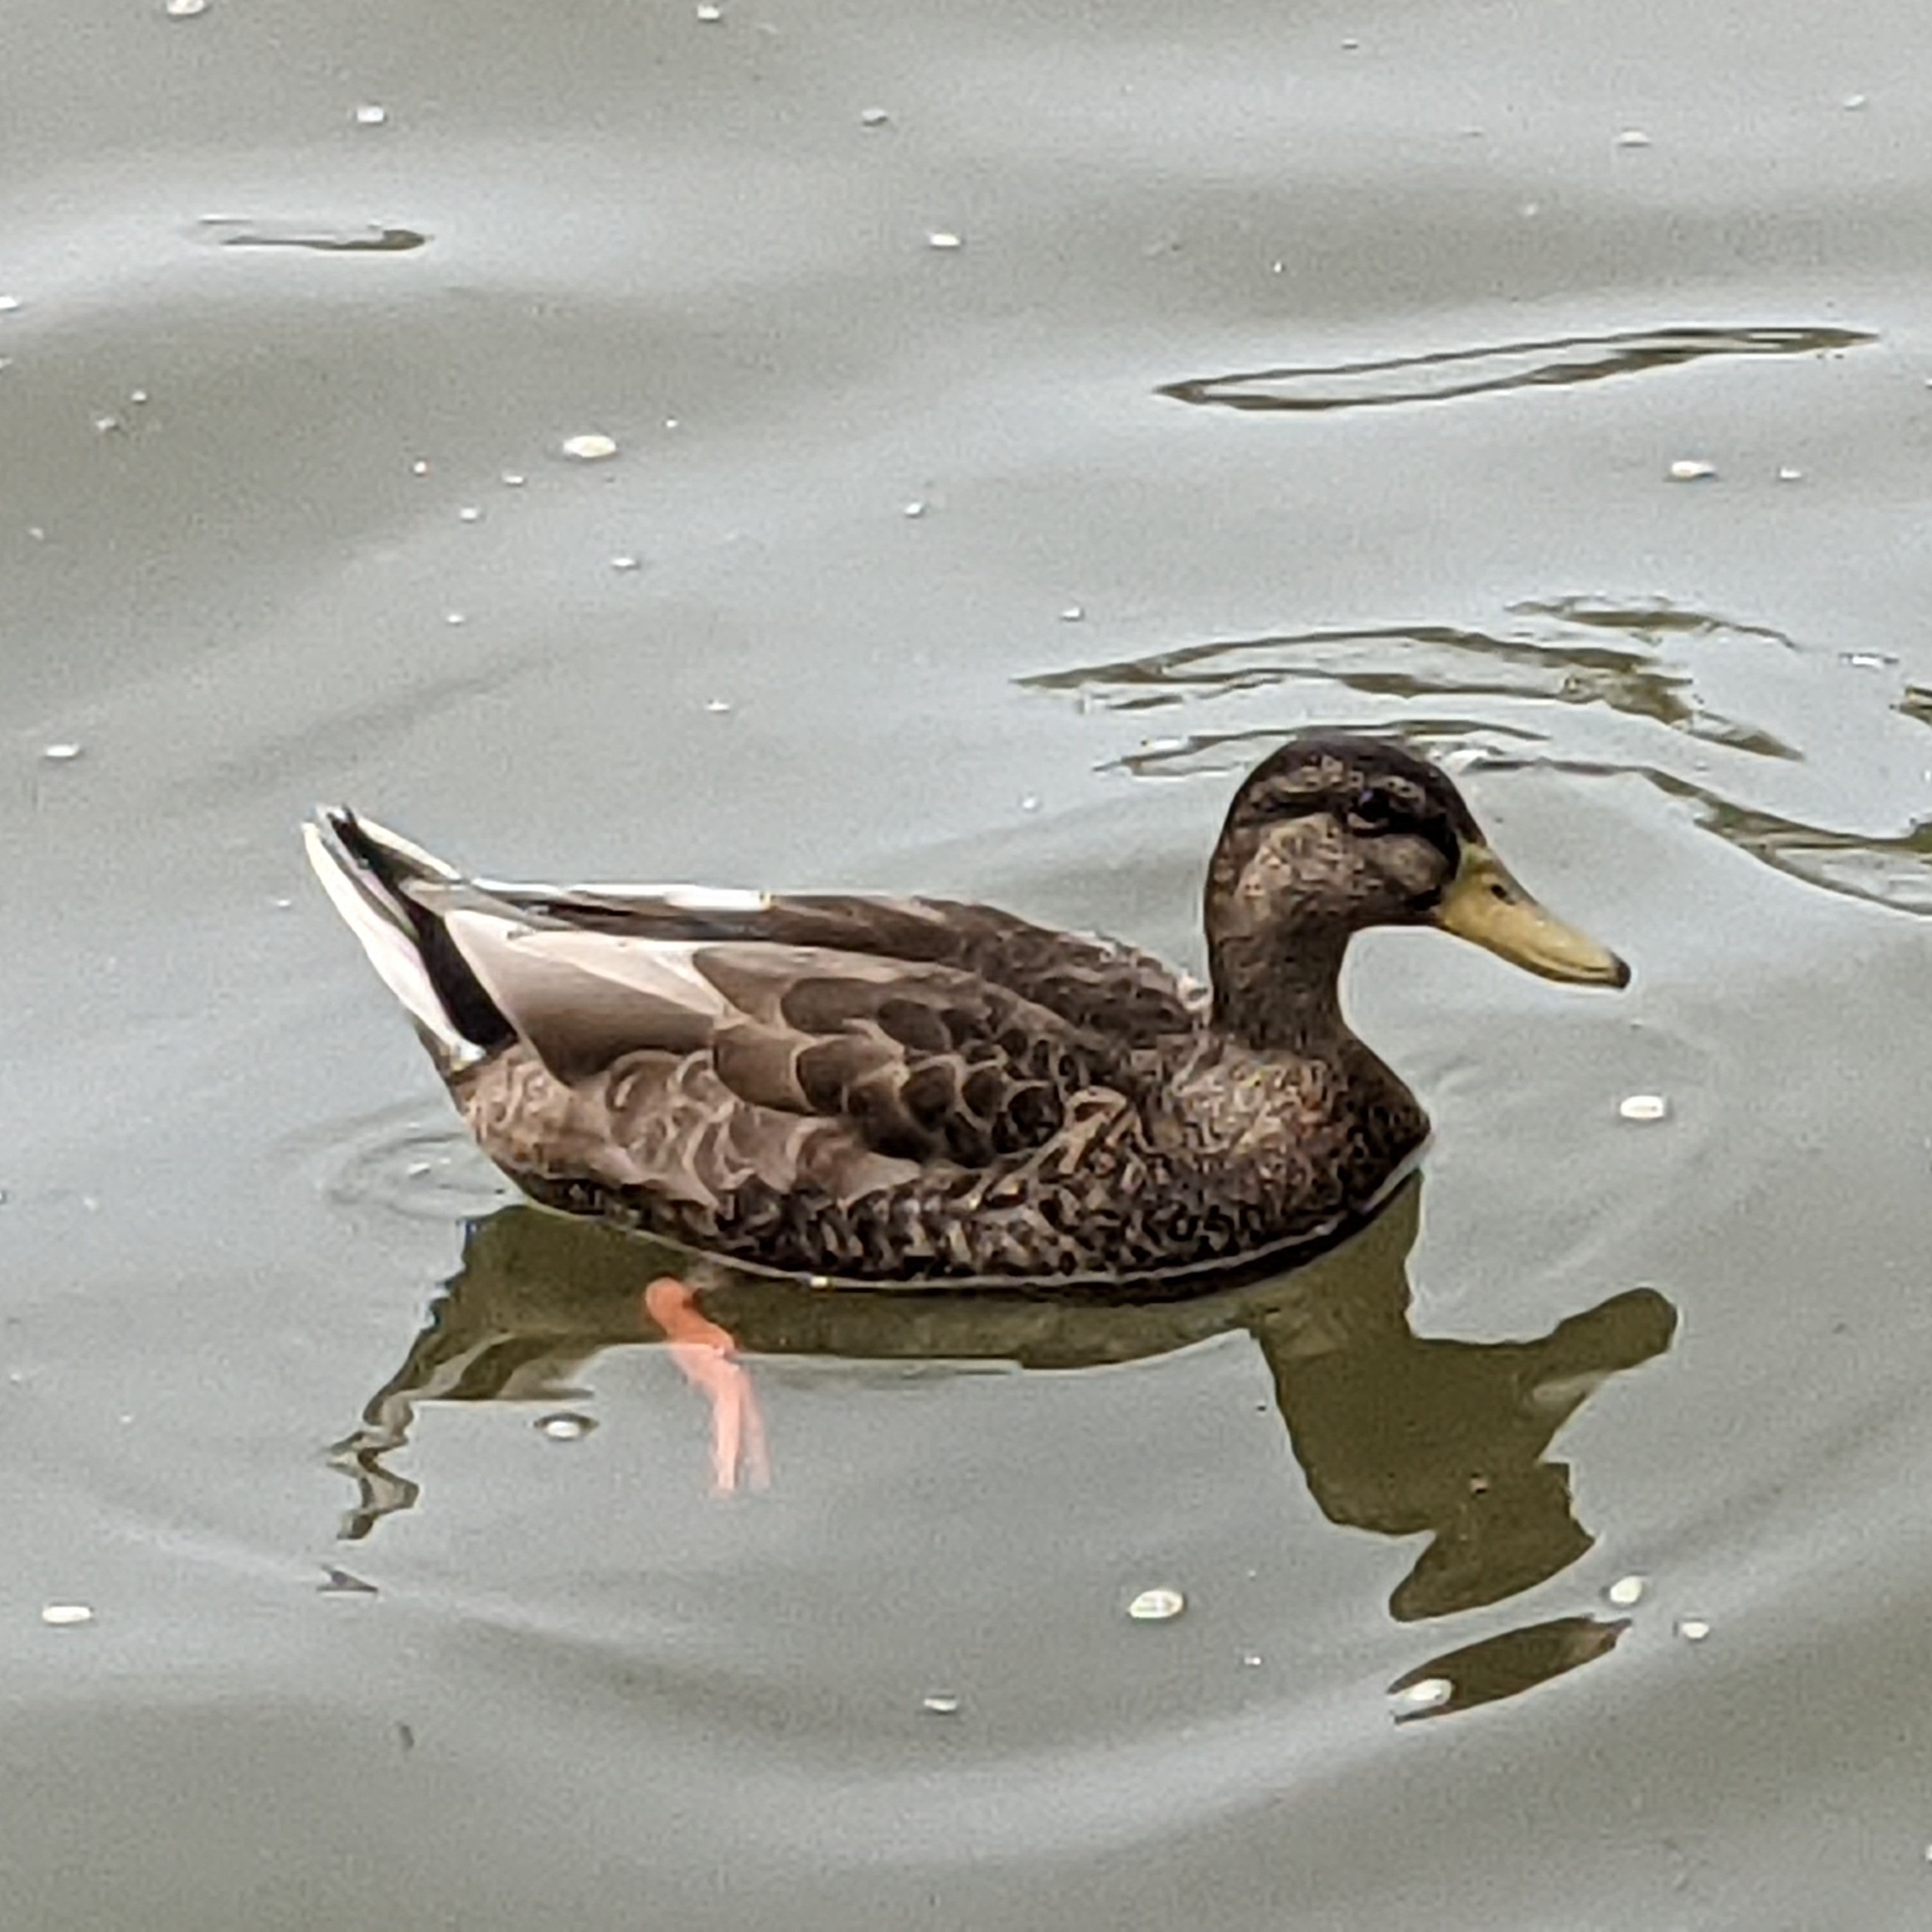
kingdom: Animalia
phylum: Chordata
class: Aves
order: Anseriformes
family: Anatidae
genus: Anas
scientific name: Anas platyrhynchos
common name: Mallard
